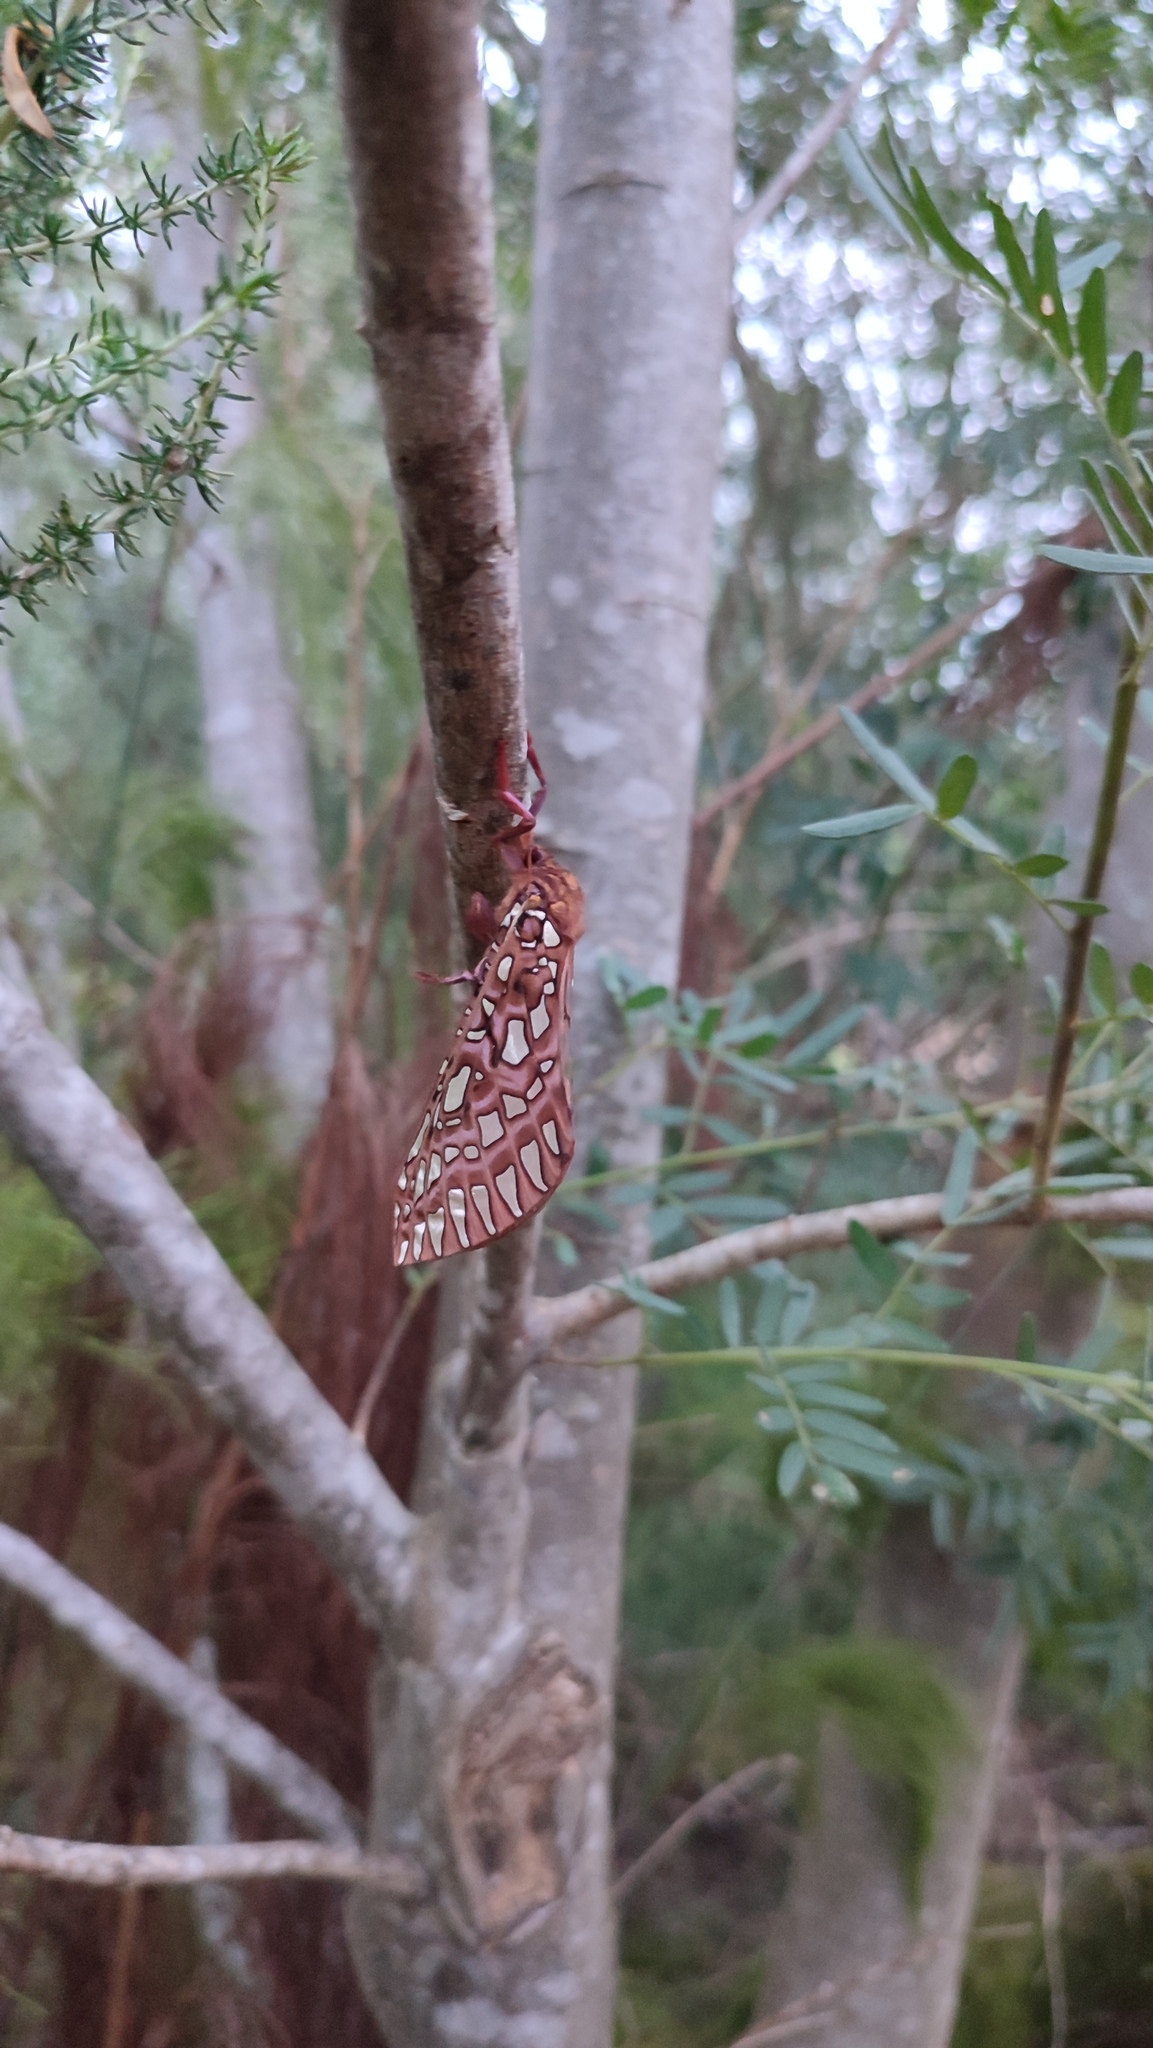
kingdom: Animalia
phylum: Arthropoda
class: Insecta
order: Lepidoptera
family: Hepialidae
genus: Leto
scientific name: Leto venus
